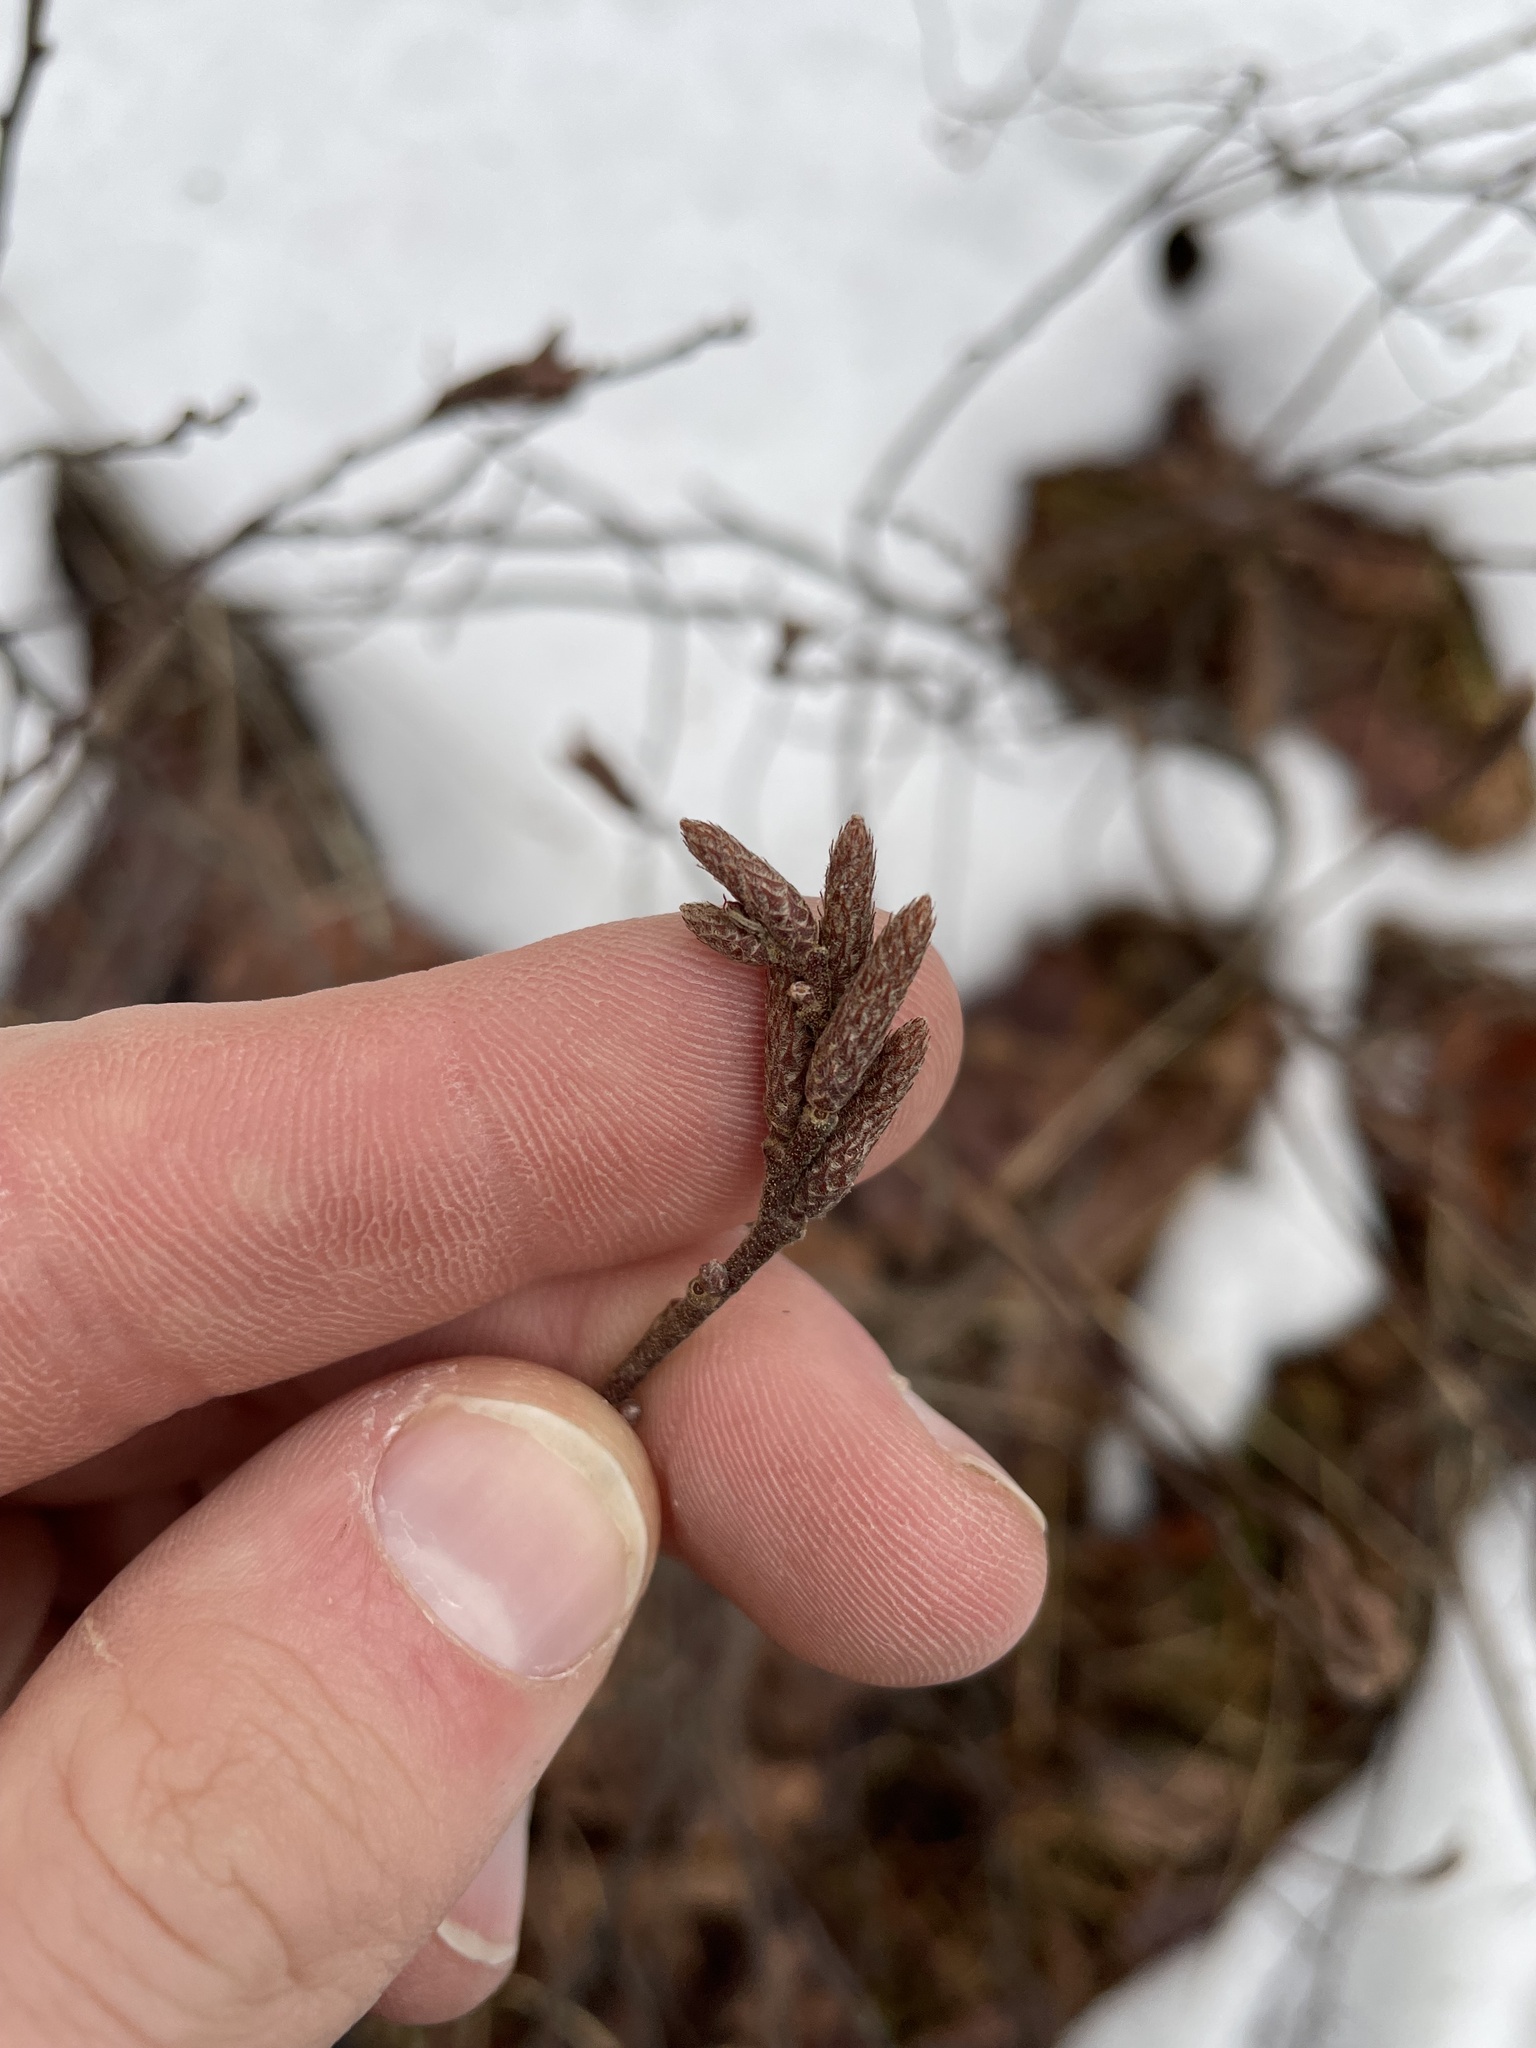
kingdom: Plantae
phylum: Tracheophyta
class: Magnoliopsida
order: Fagales
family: Myricaceae
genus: Comptonia
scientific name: Comptonia peregrina
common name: Sweet-fern
